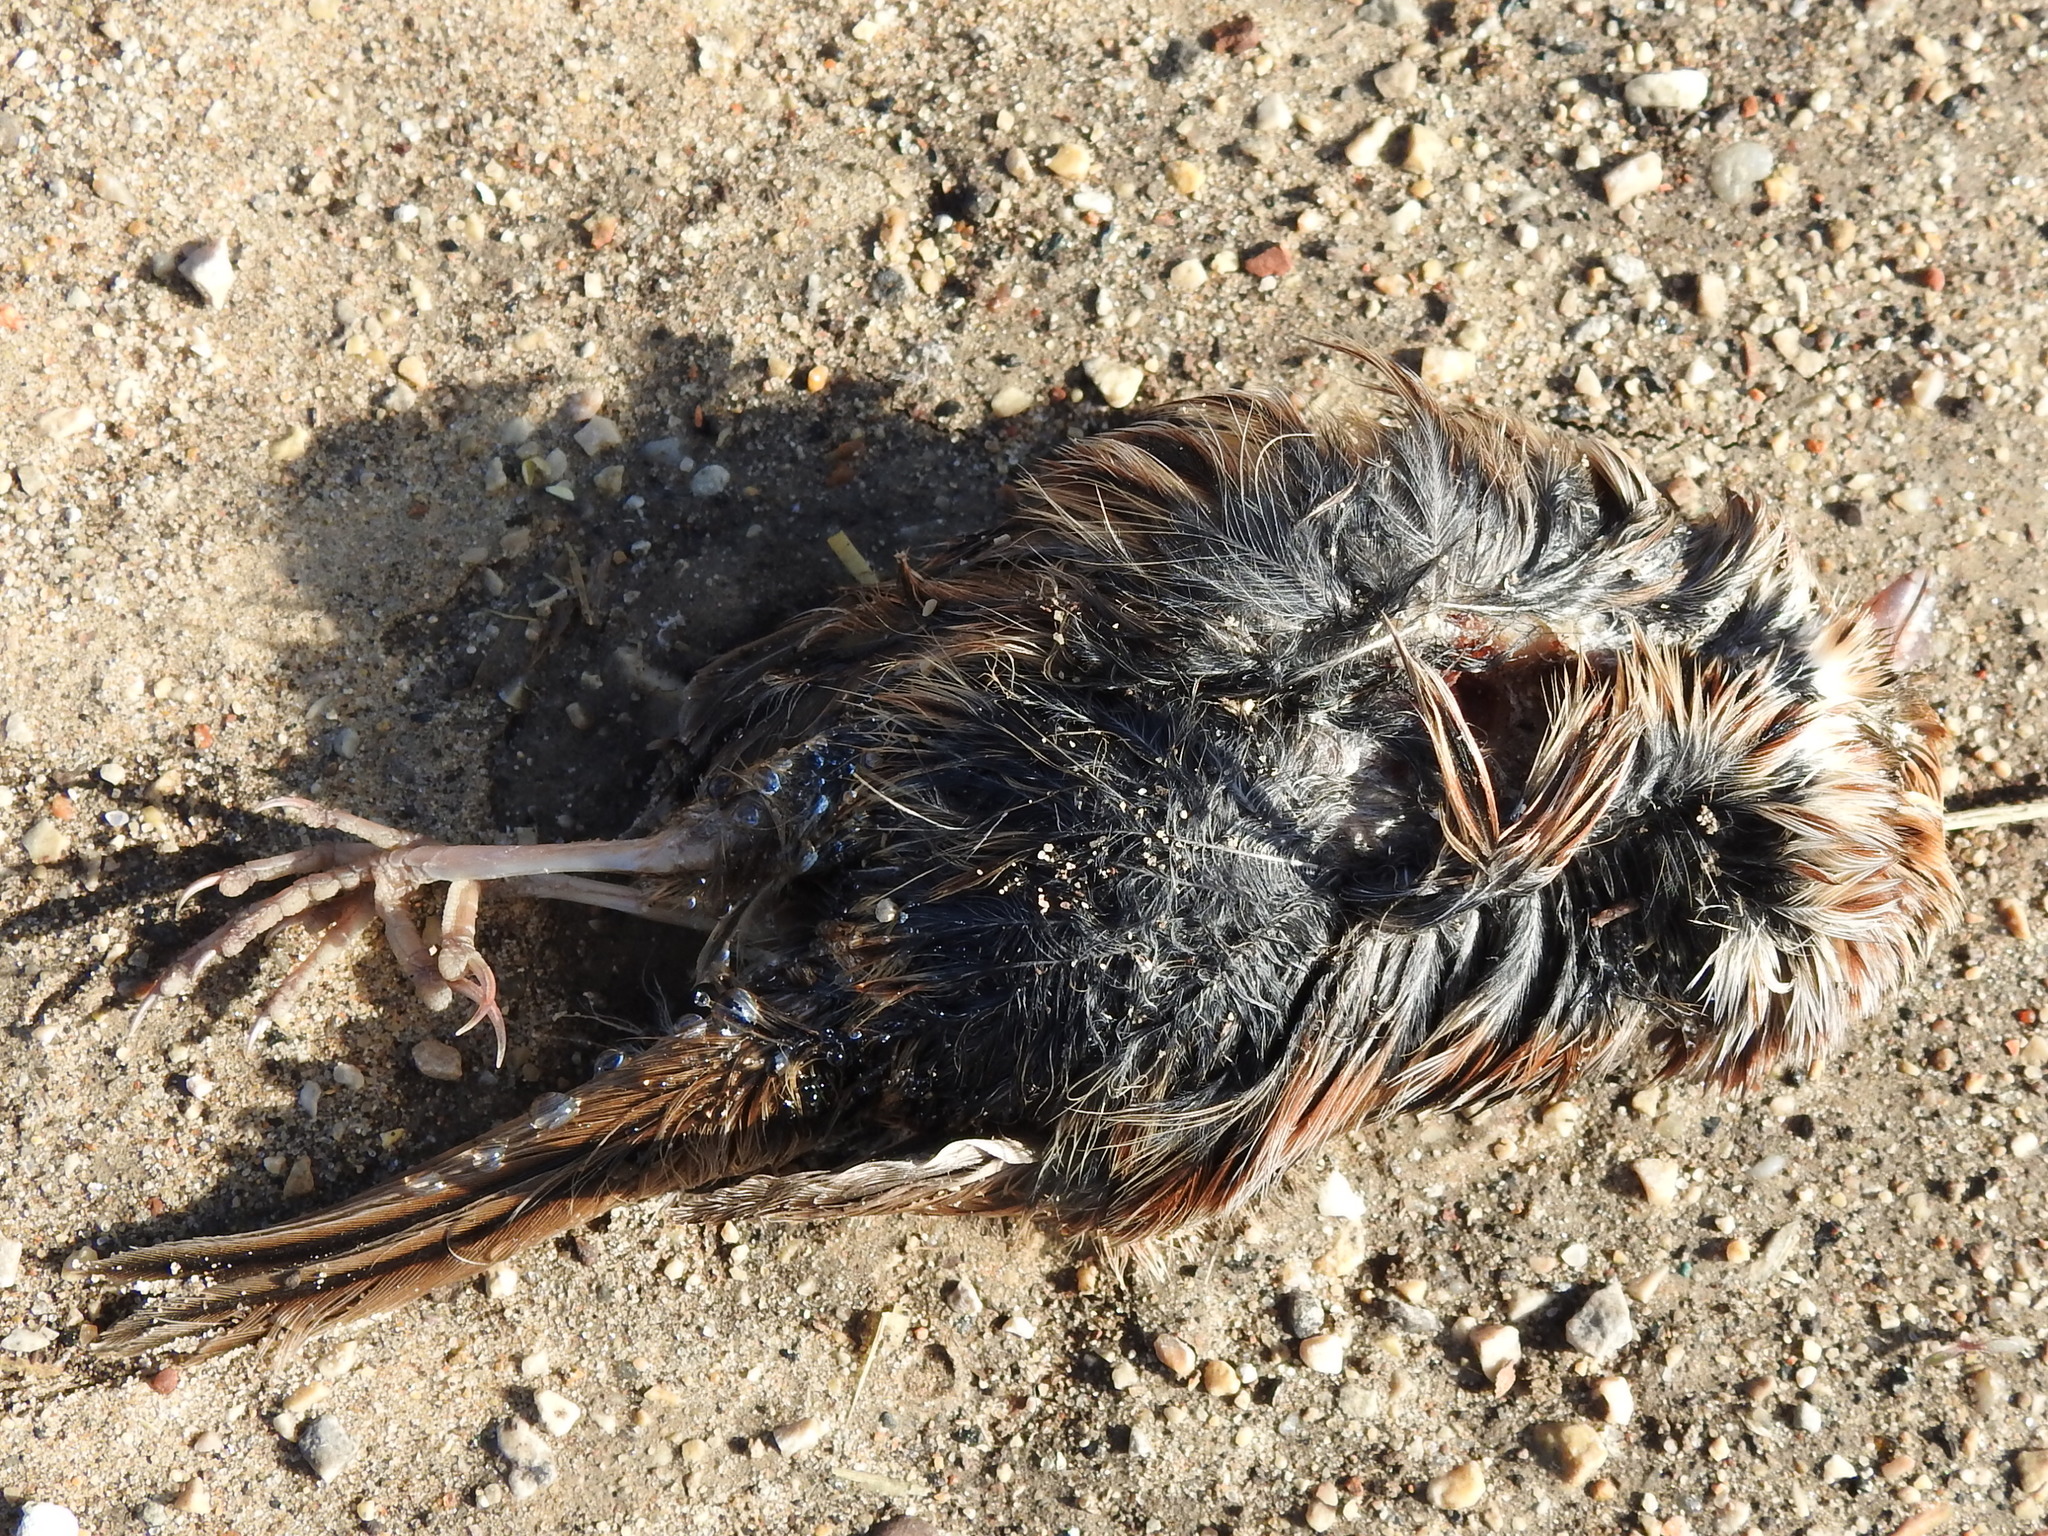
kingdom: Animalia
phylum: Chordata
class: Aves
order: Passeriformes
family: Passerellidae
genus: Ammospiza
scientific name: Ammospiza leconteii
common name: Le conte's sparrow
